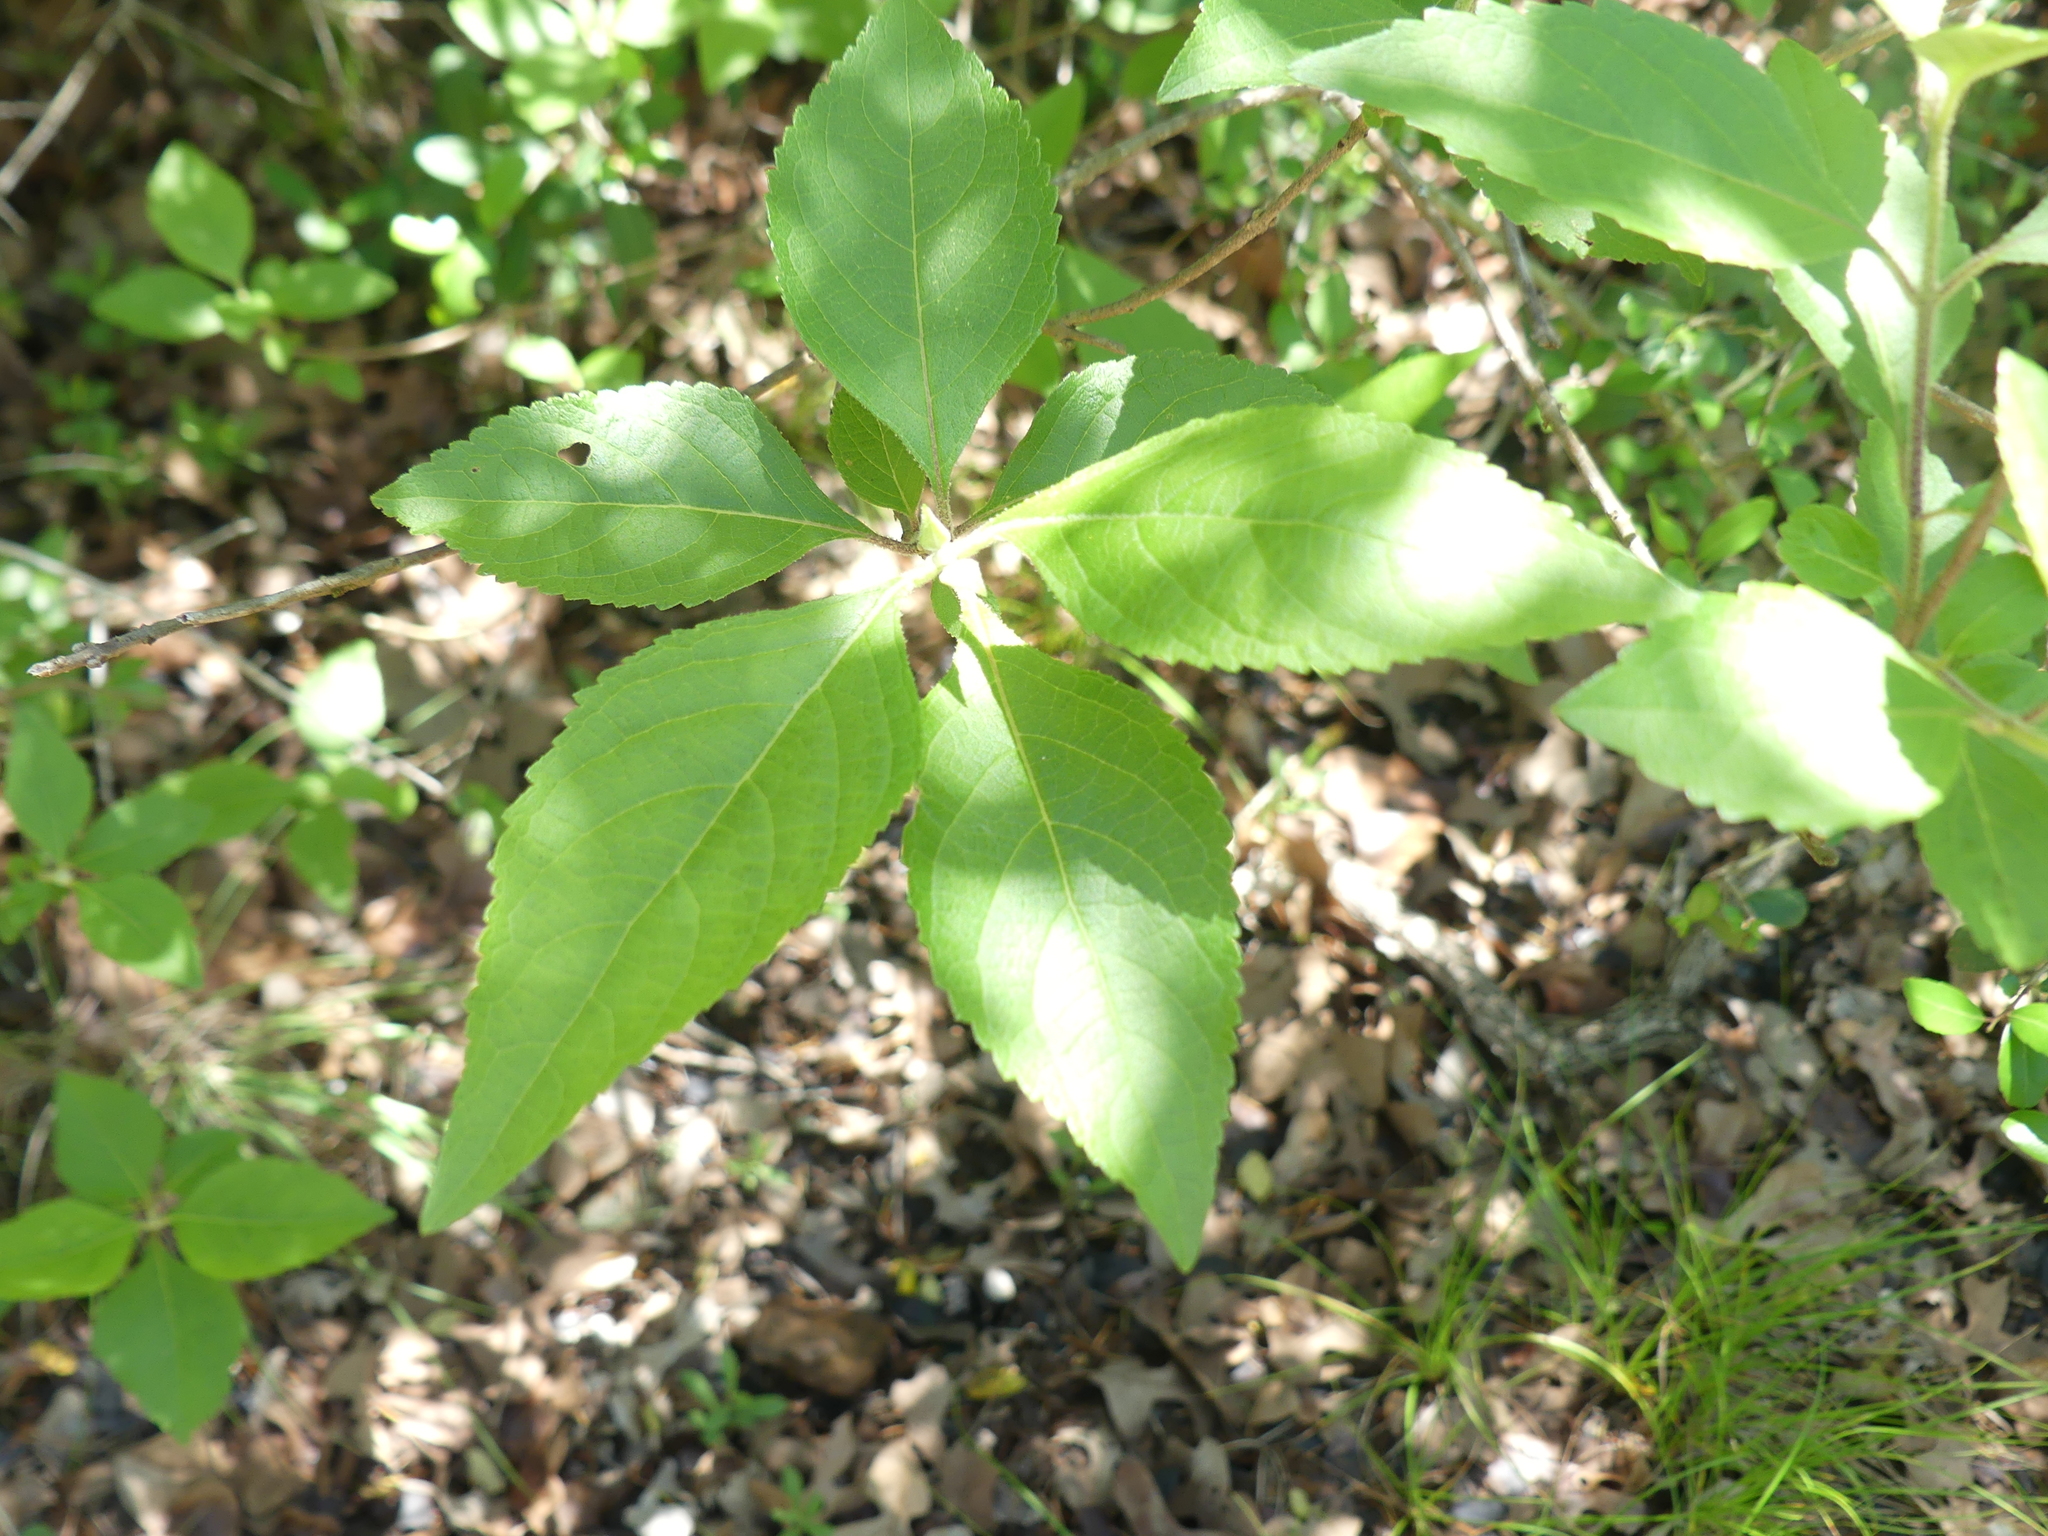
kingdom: Plantae
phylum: Tracheophyta
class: Magnoliopsida
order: Lamiales
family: Lamiaceae
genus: Callicarpa
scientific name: Callicarpa americana
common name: American beautyberry
